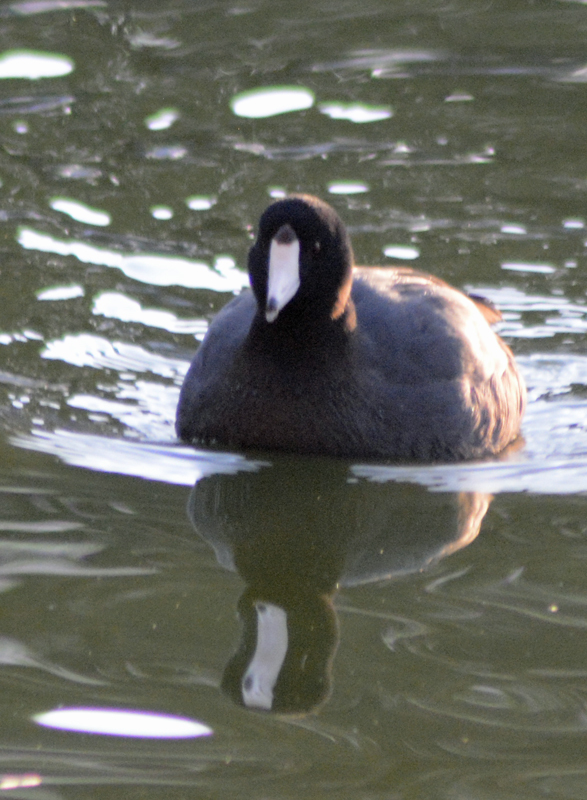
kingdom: Animalia
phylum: Chordata
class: Aves
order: Gruiformes
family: Rallidae
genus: Fulica
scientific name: Fulica americana
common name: American coot
